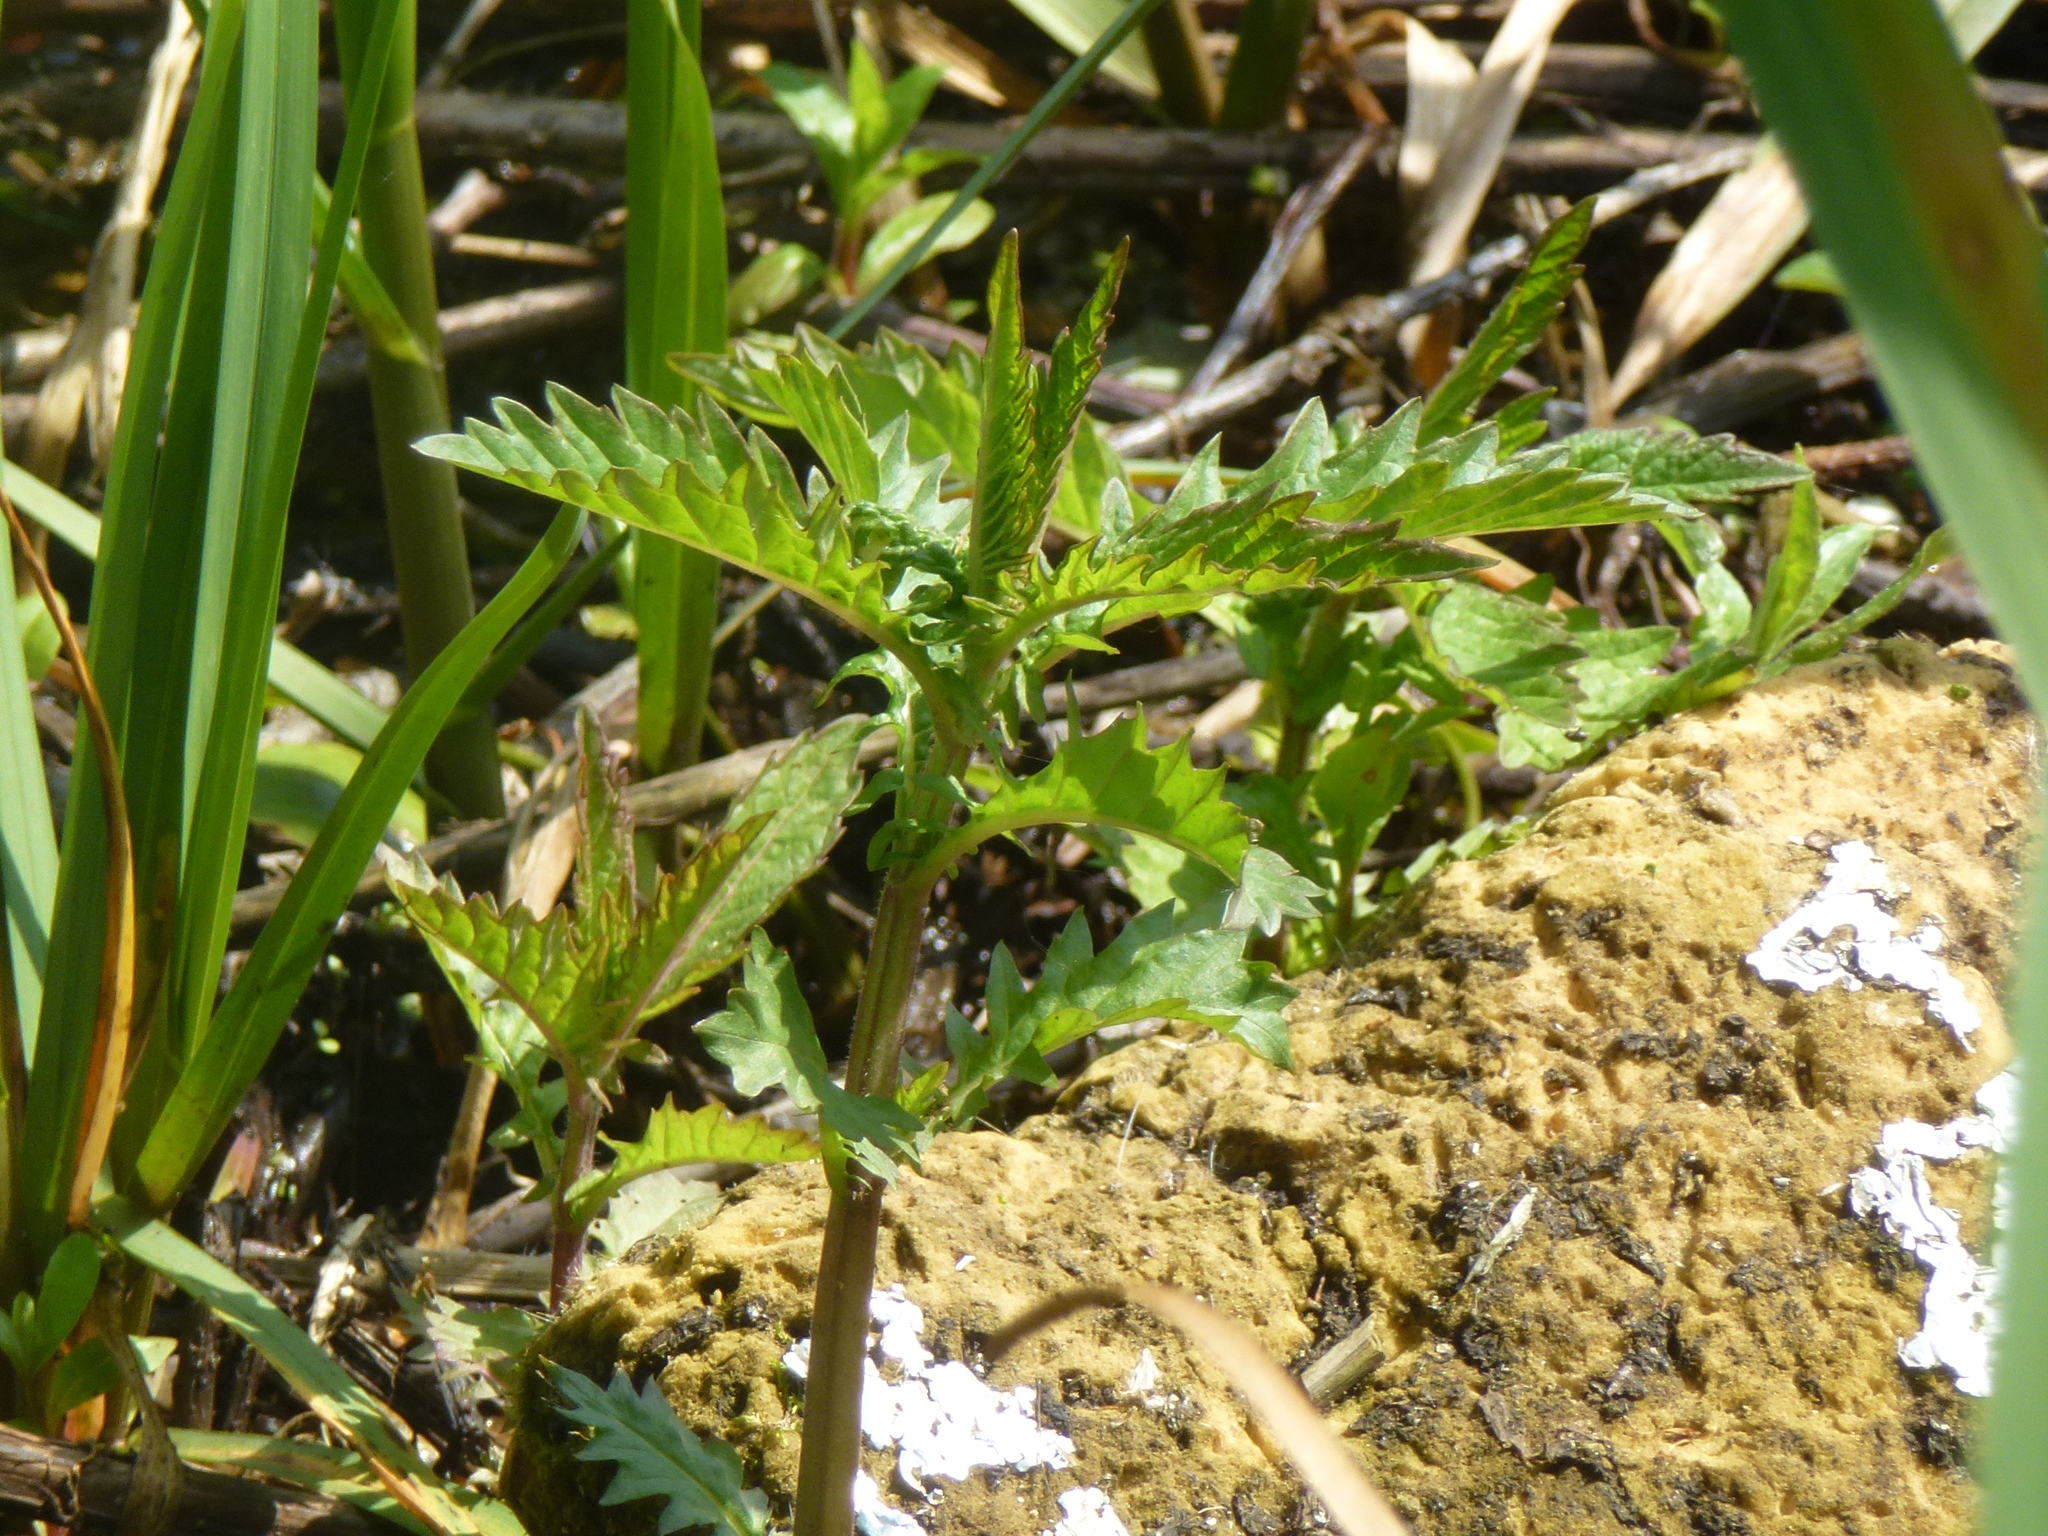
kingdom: Plantae
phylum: Tracheophyta
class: Magnoliopsida
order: Lamiales
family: Lamiaceae
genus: Lycopus
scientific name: Lycopus europaeus
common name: European bugleweed
